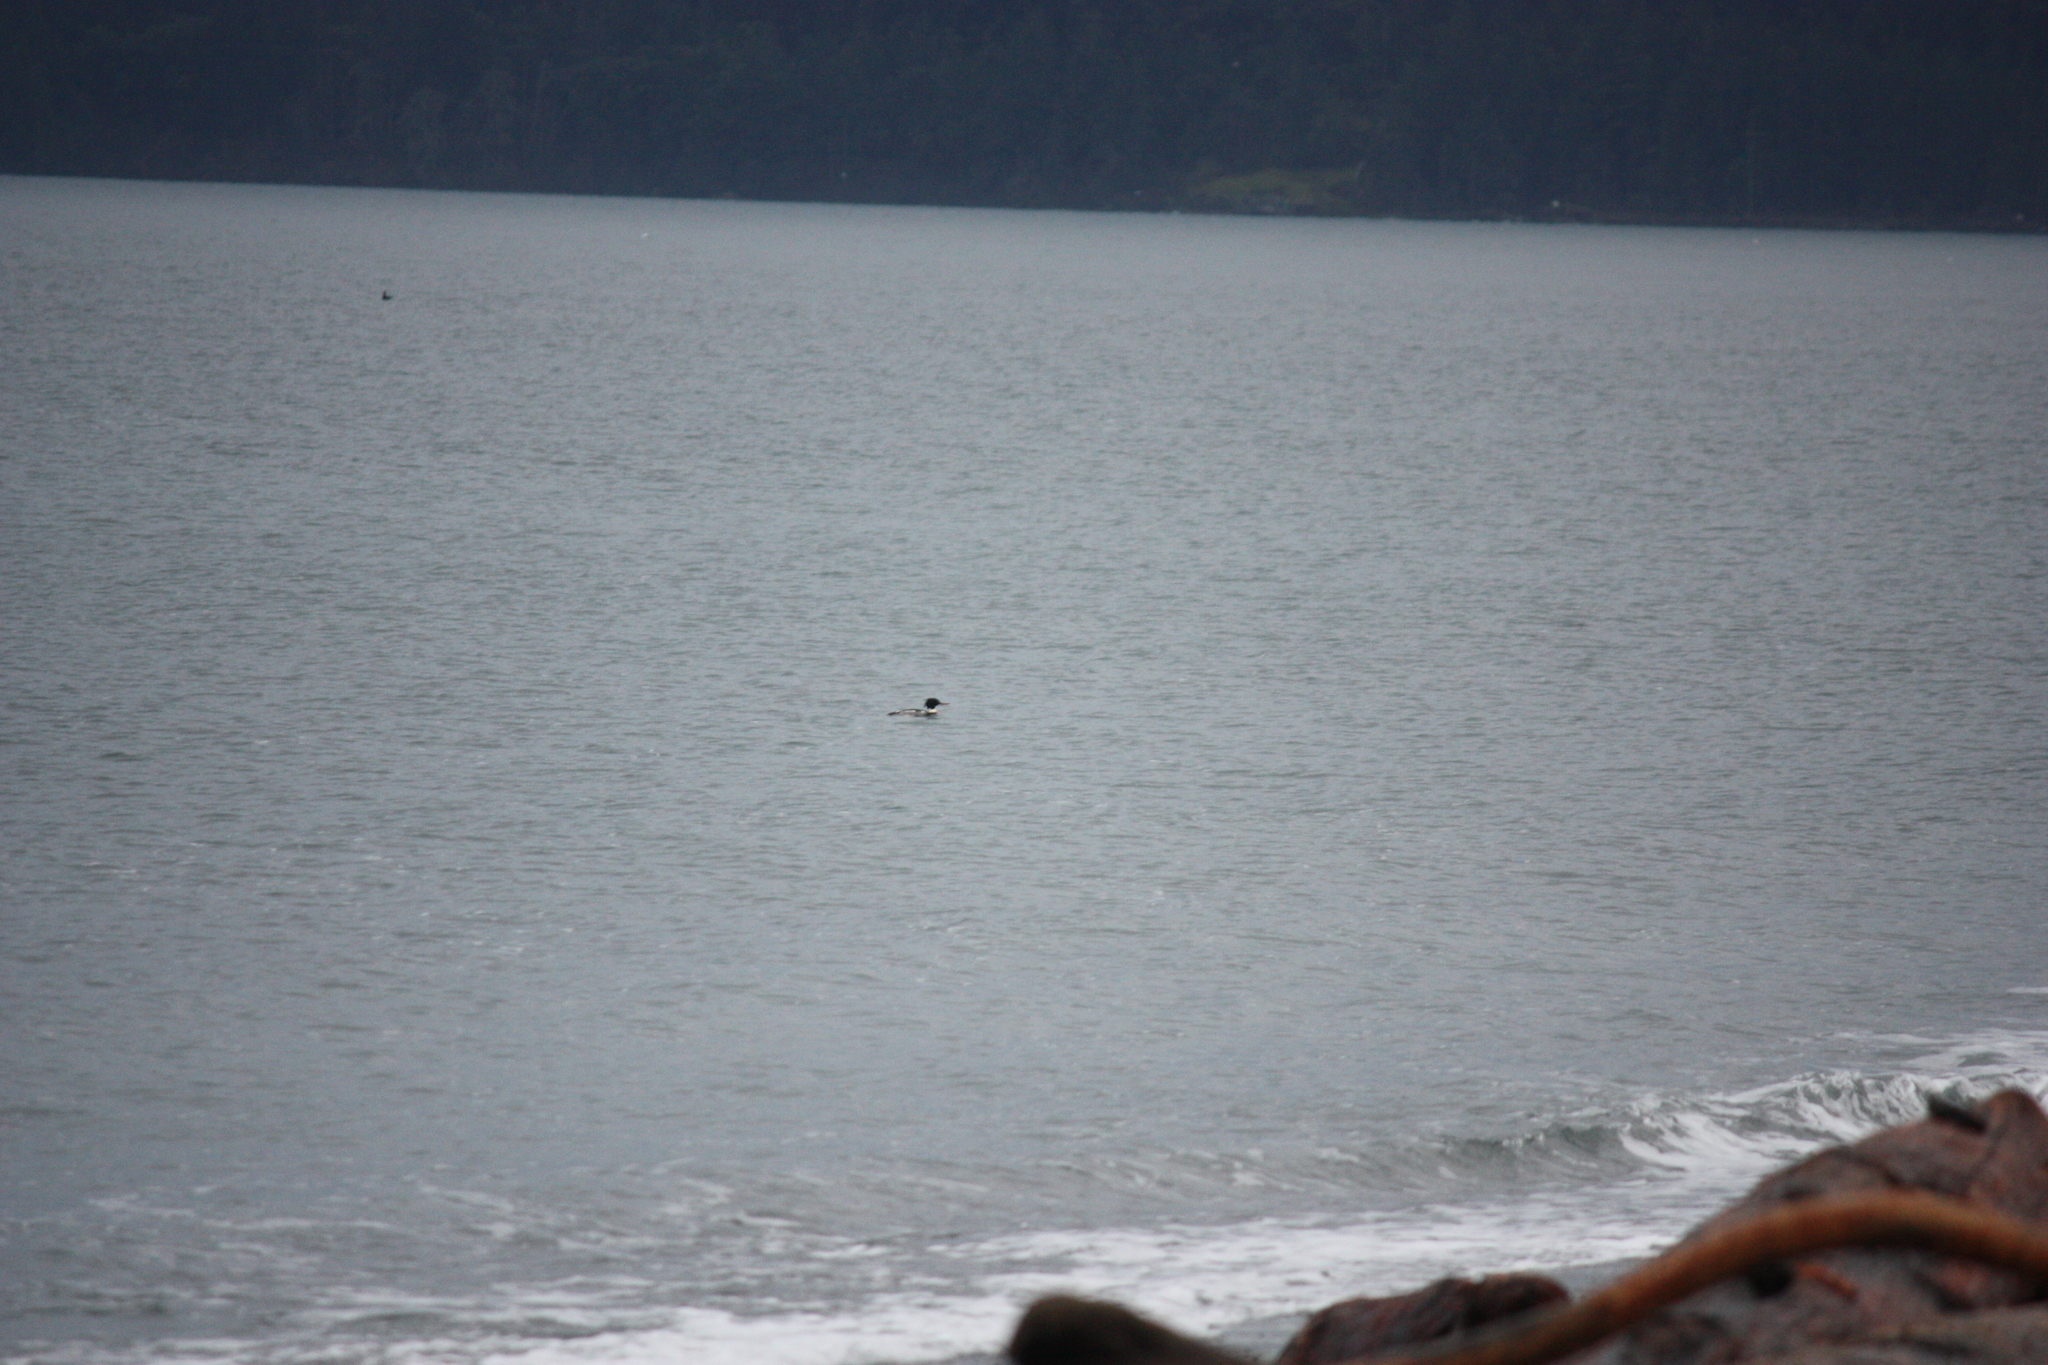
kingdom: Animalia
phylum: Chordata
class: Aves
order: Anseriformes
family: Anatidae
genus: Mergus
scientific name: Mergus serrator
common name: Red-breasted merganser
